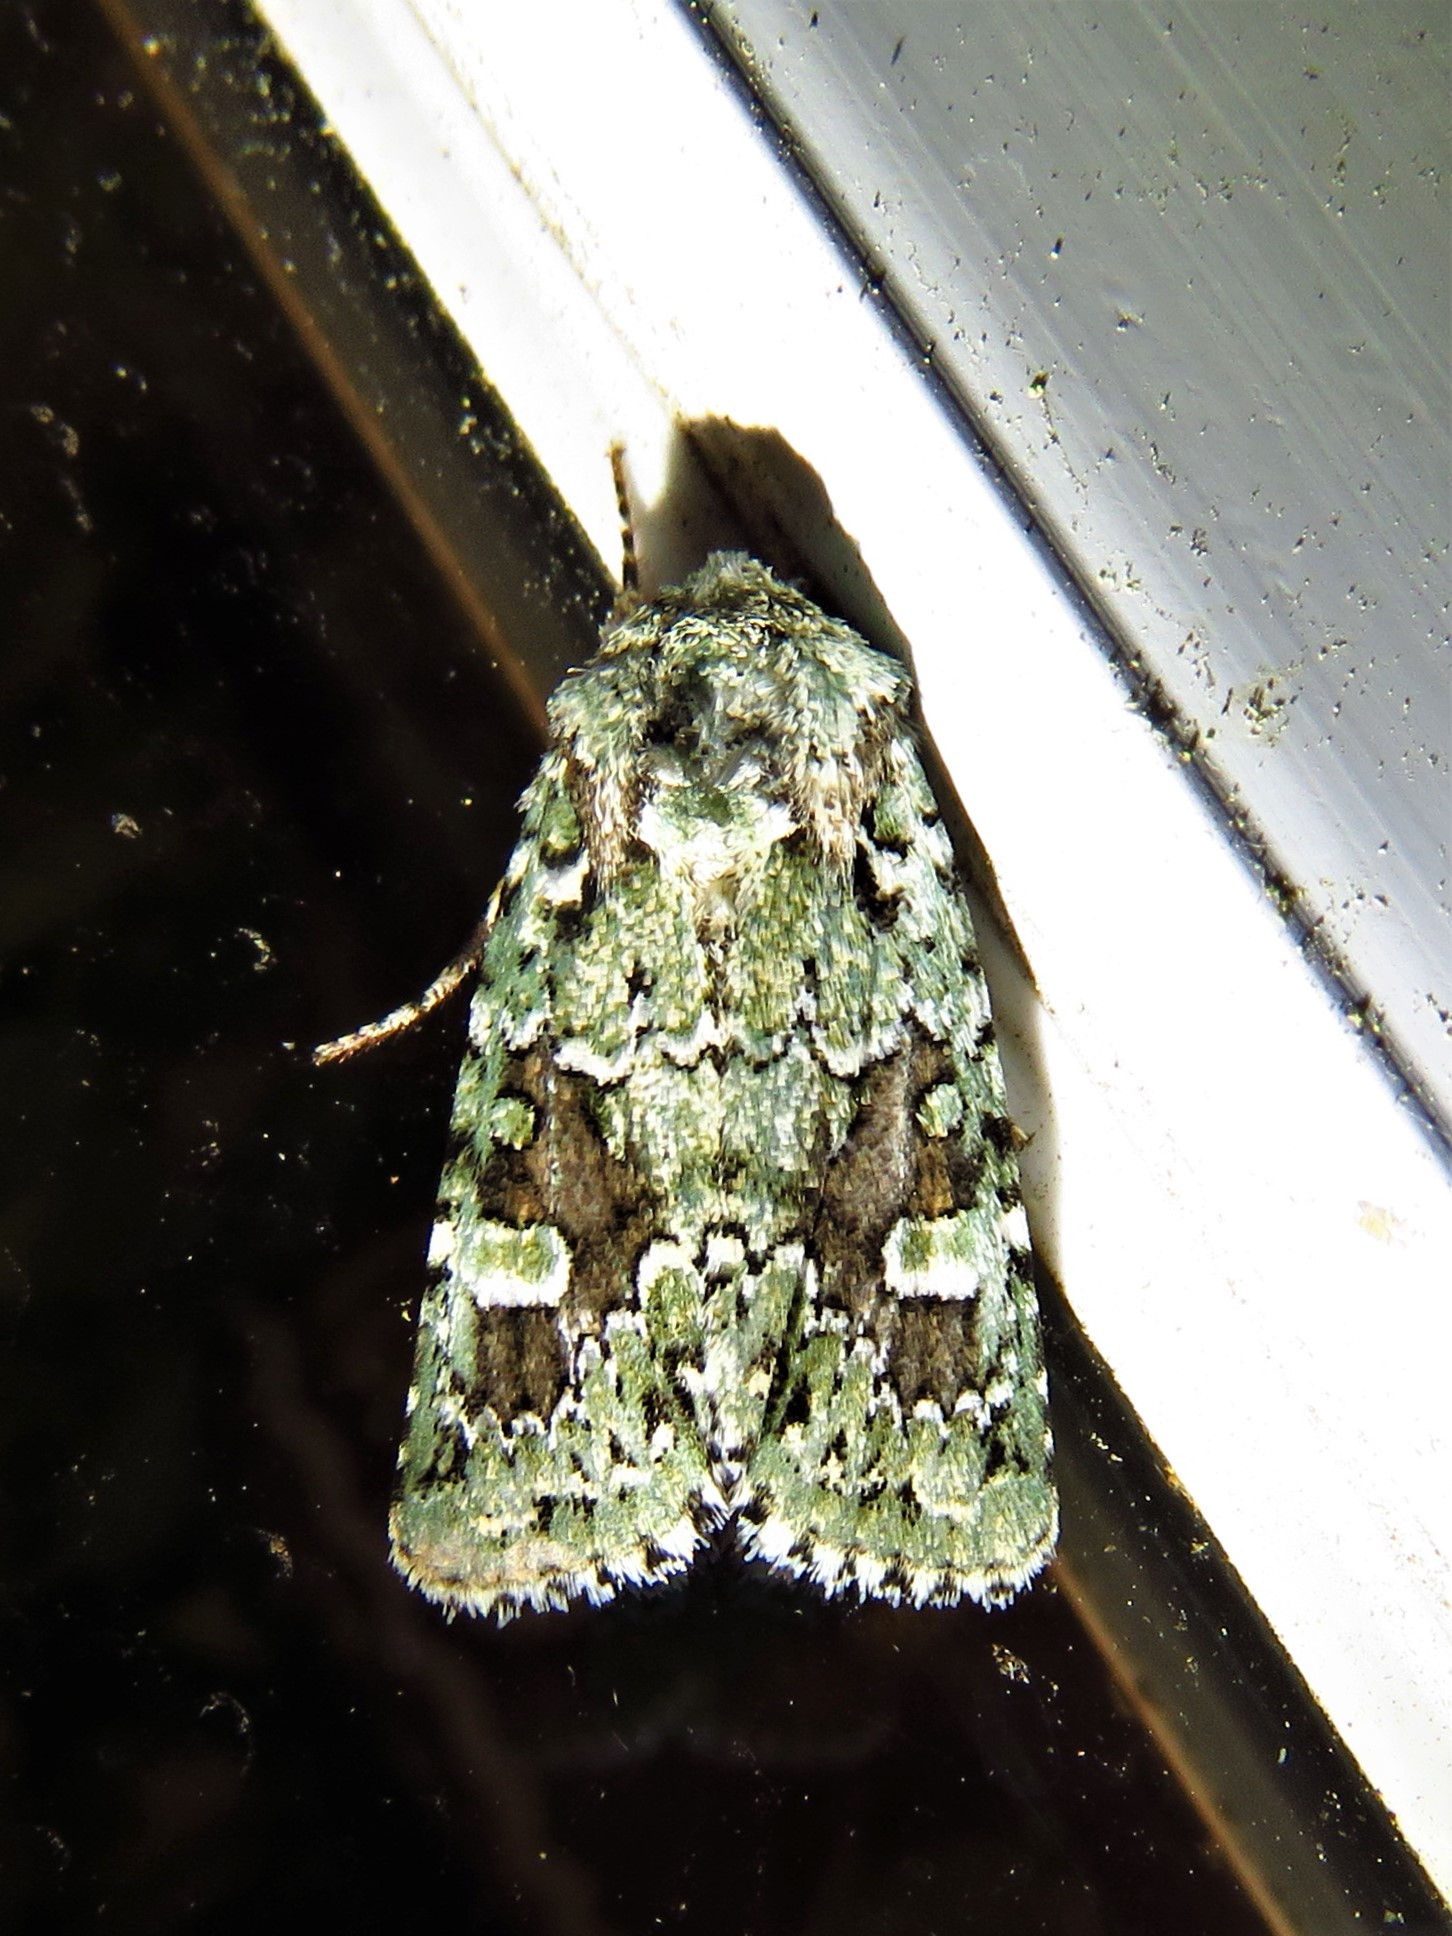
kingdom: Animalia
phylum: Arthropoda
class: Insecta
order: Lepidoptera
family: Noctuidae
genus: Lacinipolia
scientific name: Lacinipolia laudabilis
